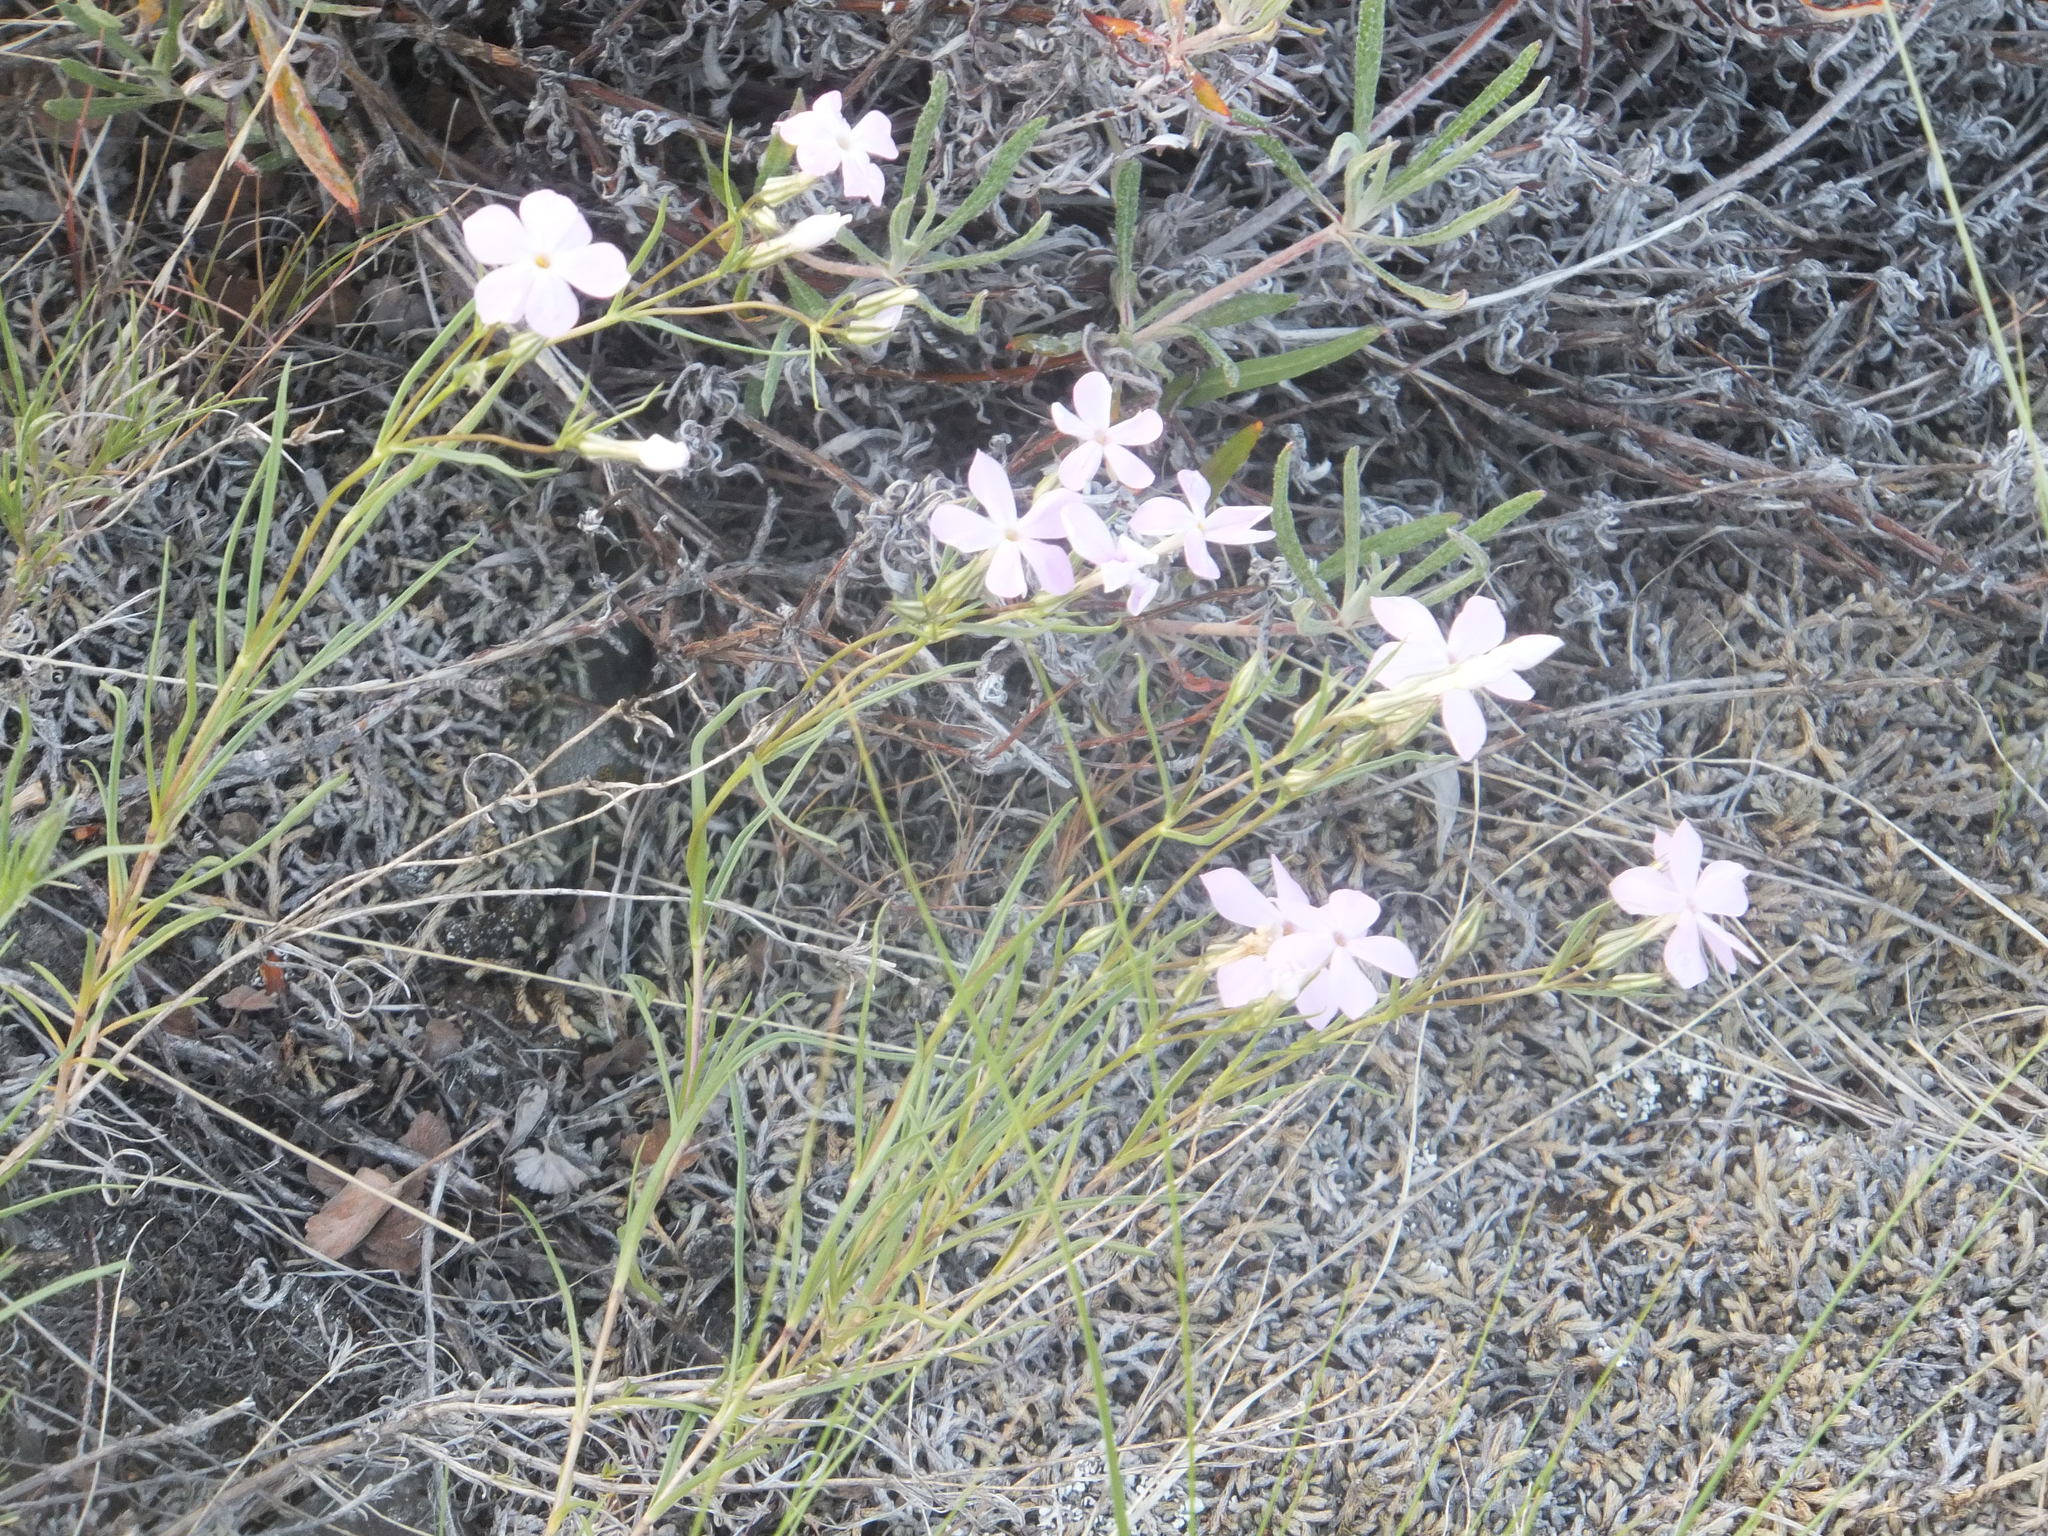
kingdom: Plantae
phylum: Tracheophyta
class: Magnoliopsida
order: Ericales
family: Polemoniaceae
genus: Phlox
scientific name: Phlox longifolia
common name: Longleaf phlox
